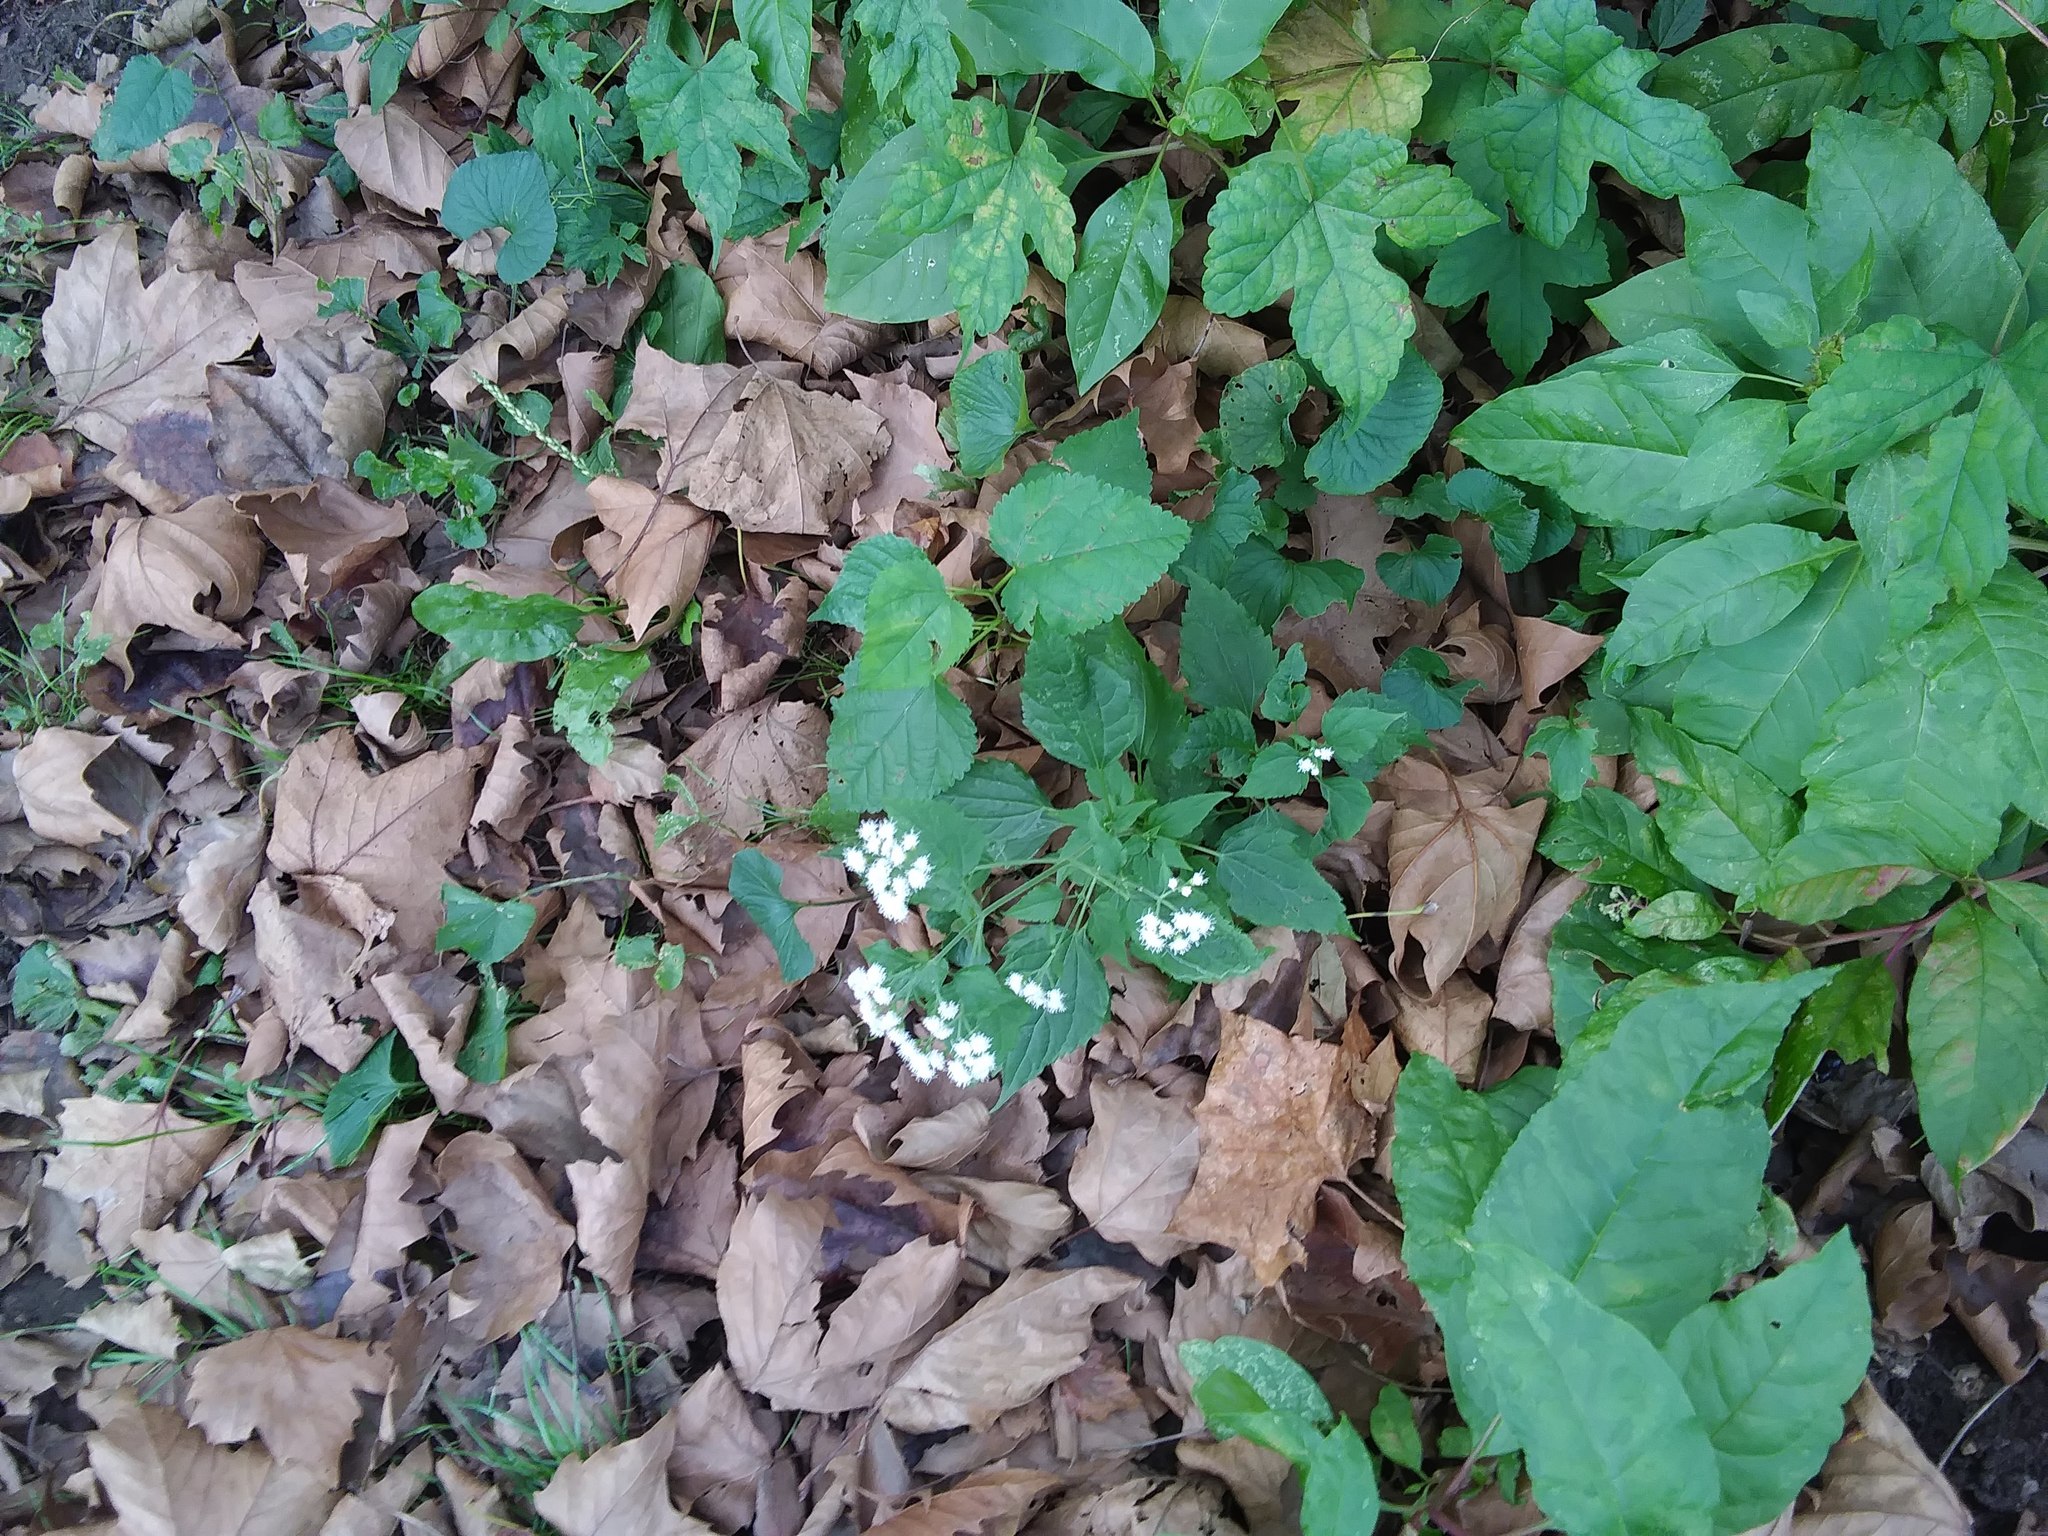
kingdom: Plantae
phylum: Tracheophyta
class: Magnoliopsida
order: Asterales
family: Asteraceae
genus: Ageratina
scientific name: Ageratina altissima
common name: White snakeroot
